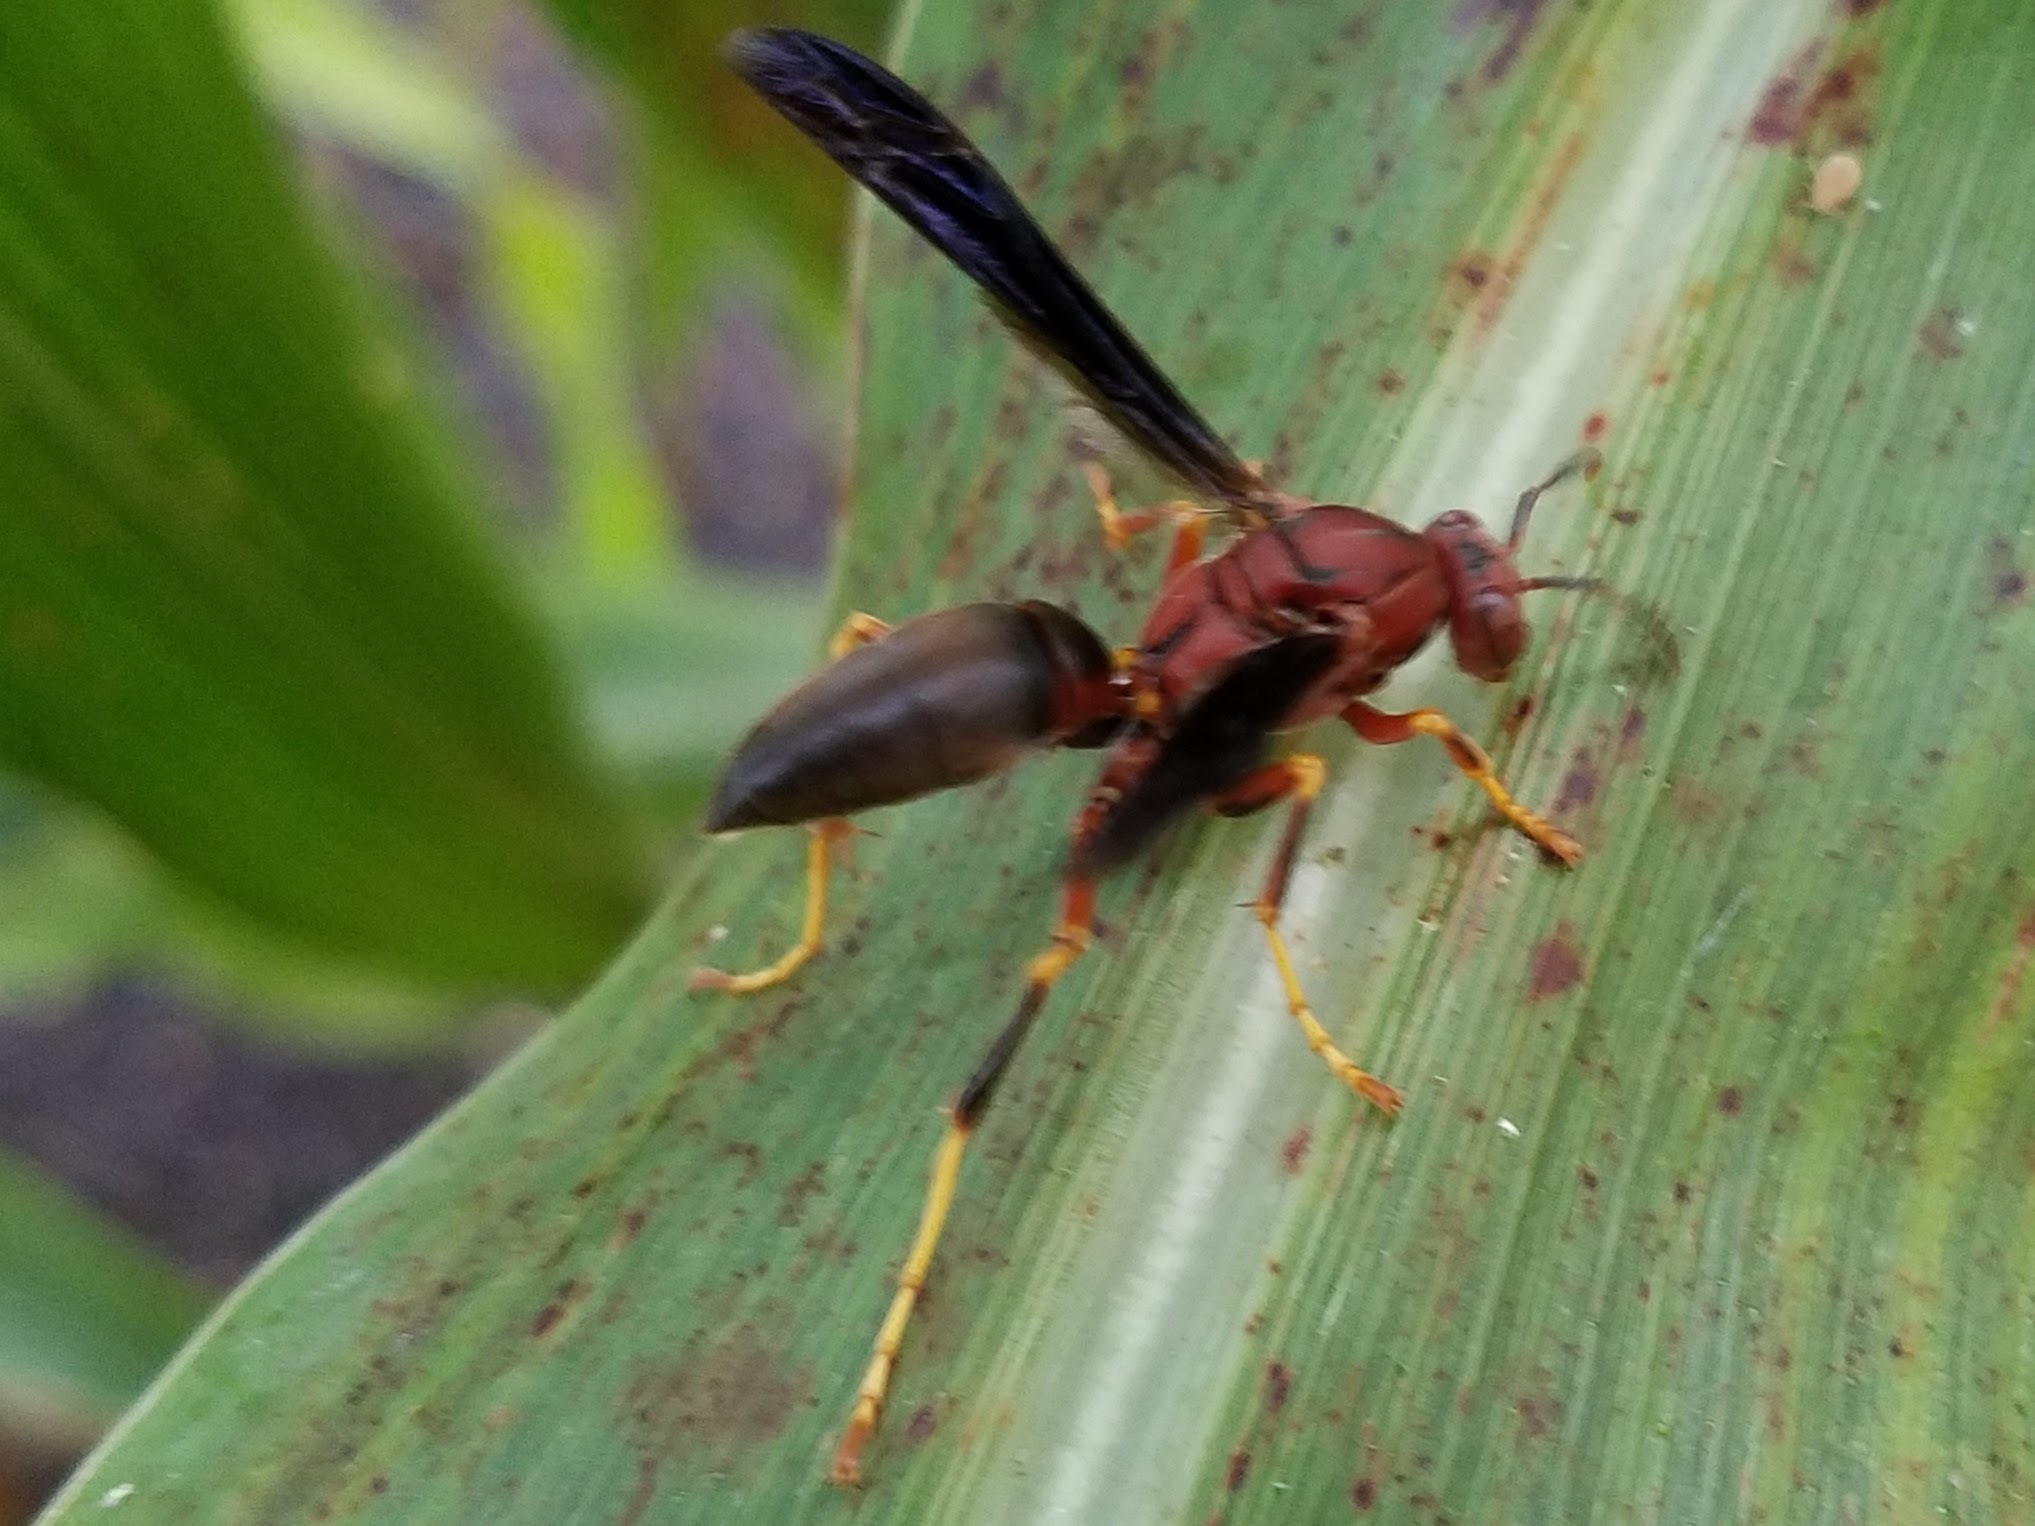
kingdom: Animalia
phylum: Arthropoda
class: Insecta
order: Hymenoptera
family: Eumenidae
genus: Polistes
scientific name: Polistes metricus
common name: Metric paper wasp
